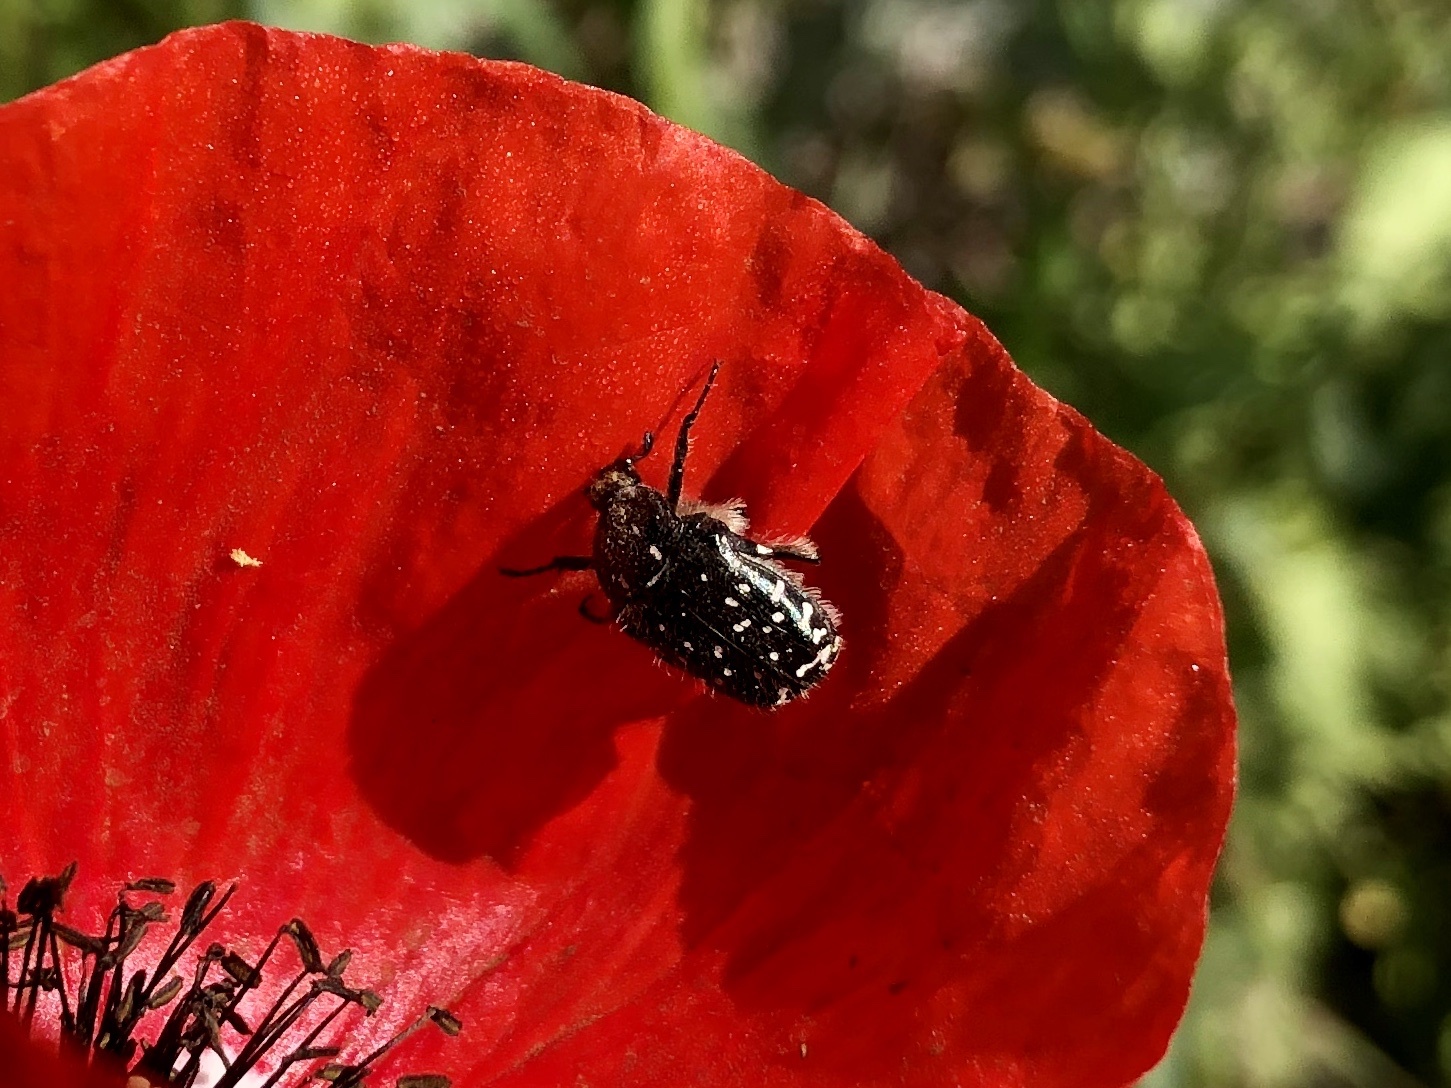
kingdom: Animalia
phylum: Arthropoda
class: Insecta
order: Coleoptera
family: Scarabaeidae
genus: Oxythyrea
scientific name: Oxythyrea funesta
